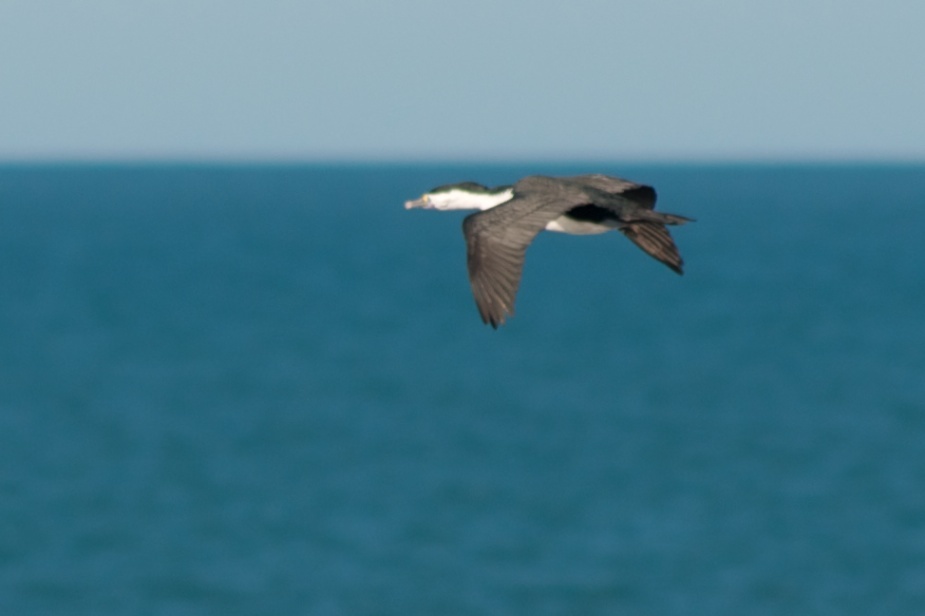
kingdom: Animalia
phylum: Chordata
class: Aves
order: Suliformes
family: Phalacrocoracidae
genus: Phalacrocorax
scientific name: Phalacrocorax varius
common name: Pied cormorant
